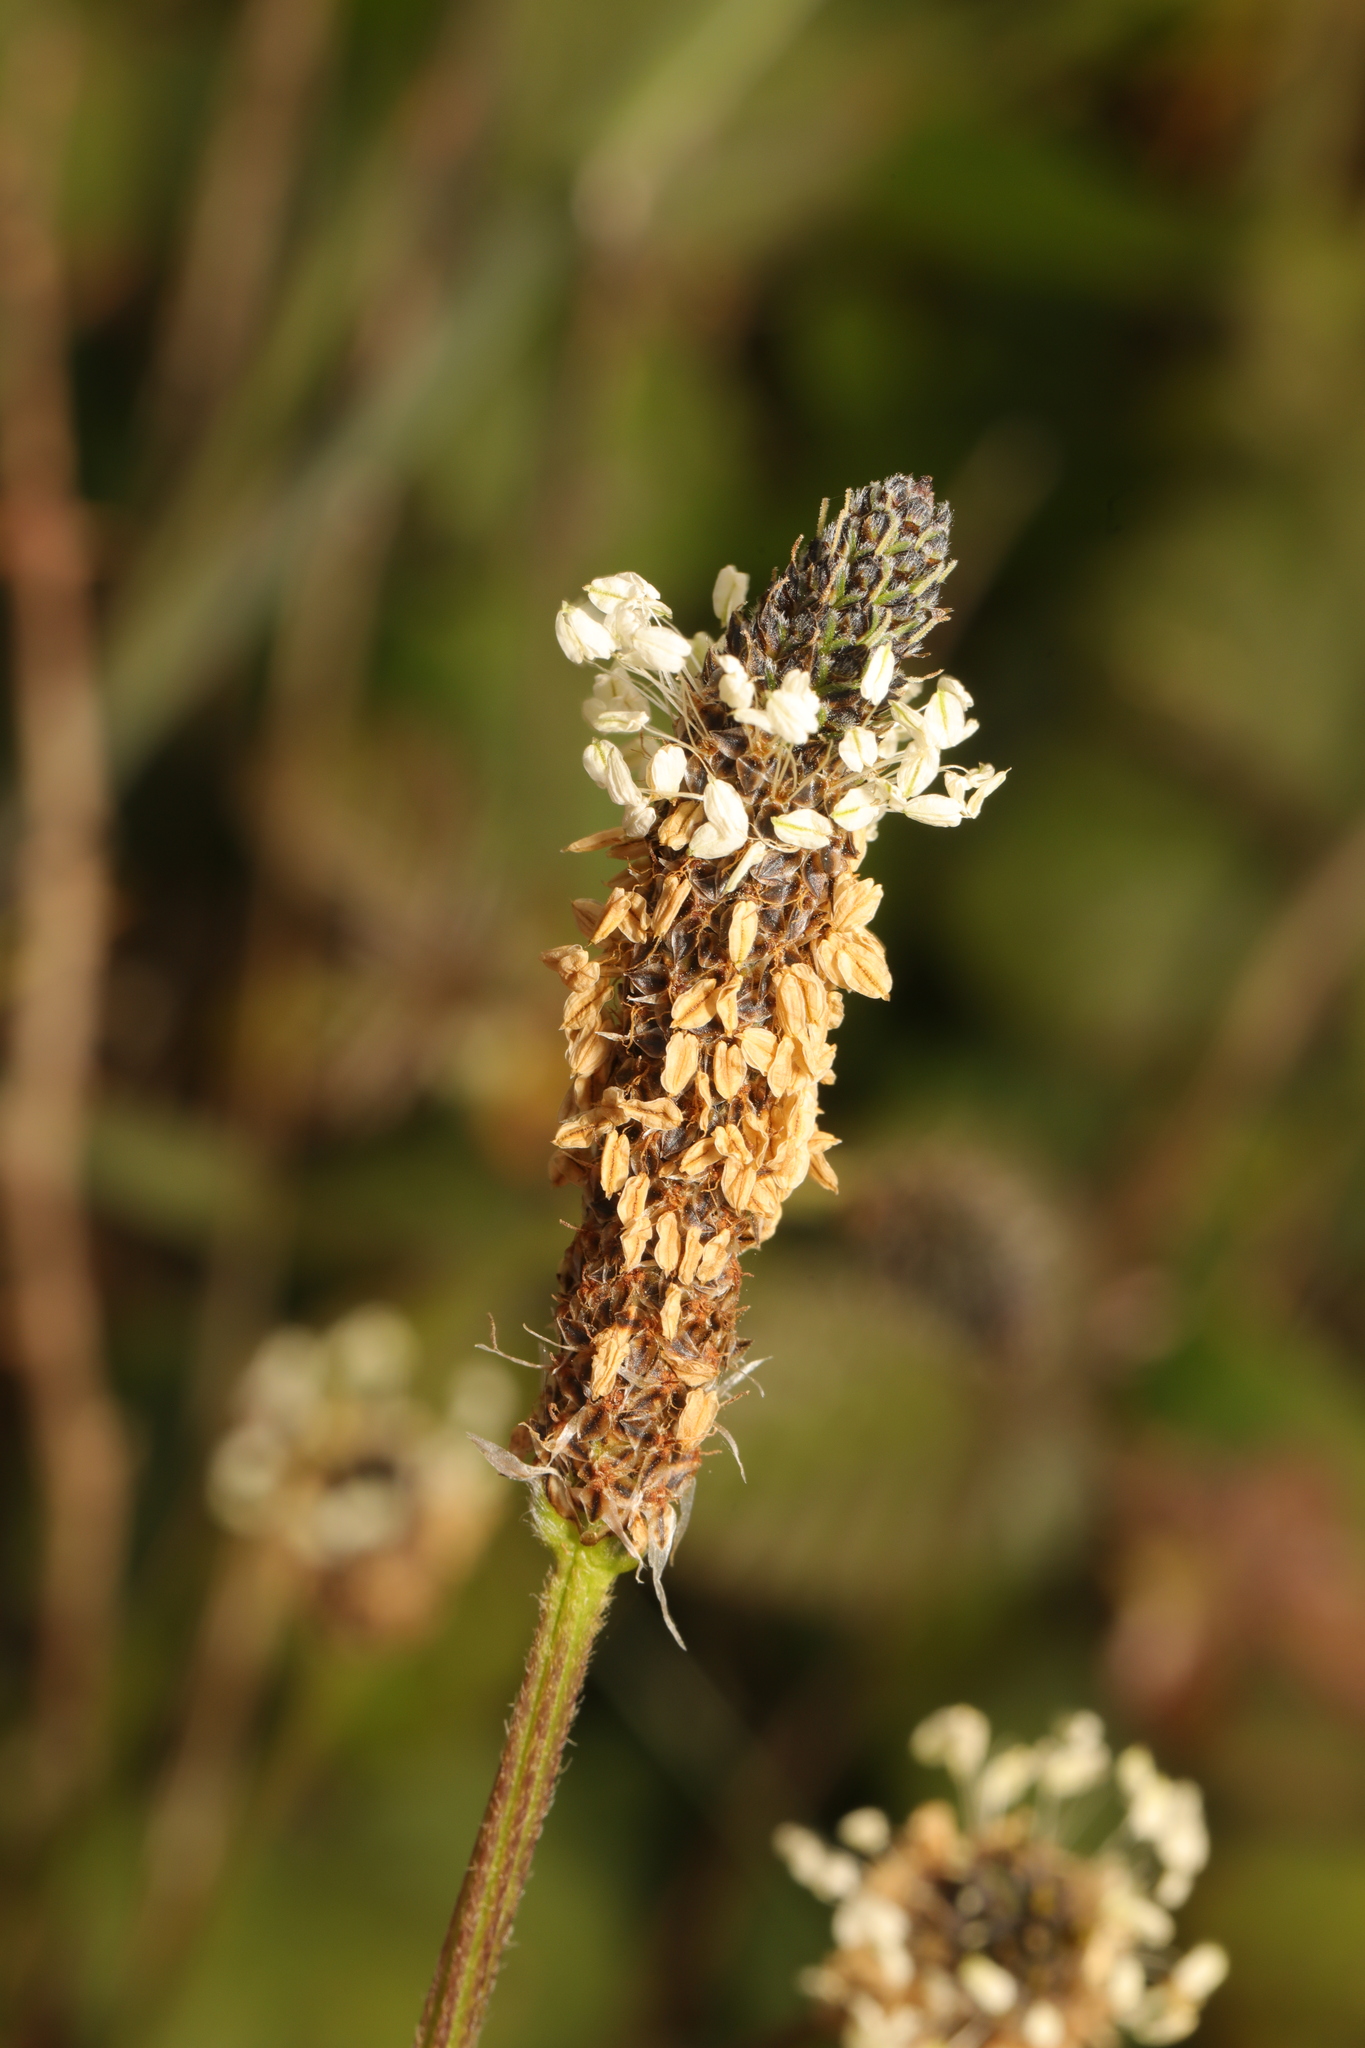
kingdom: Plantae
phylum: Tracheophyta
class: Magnoliopsida
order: Lamiales
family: Plantaginaceae
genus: Plantago
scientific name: Plantago lanceolata
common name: Ribwort plantain
